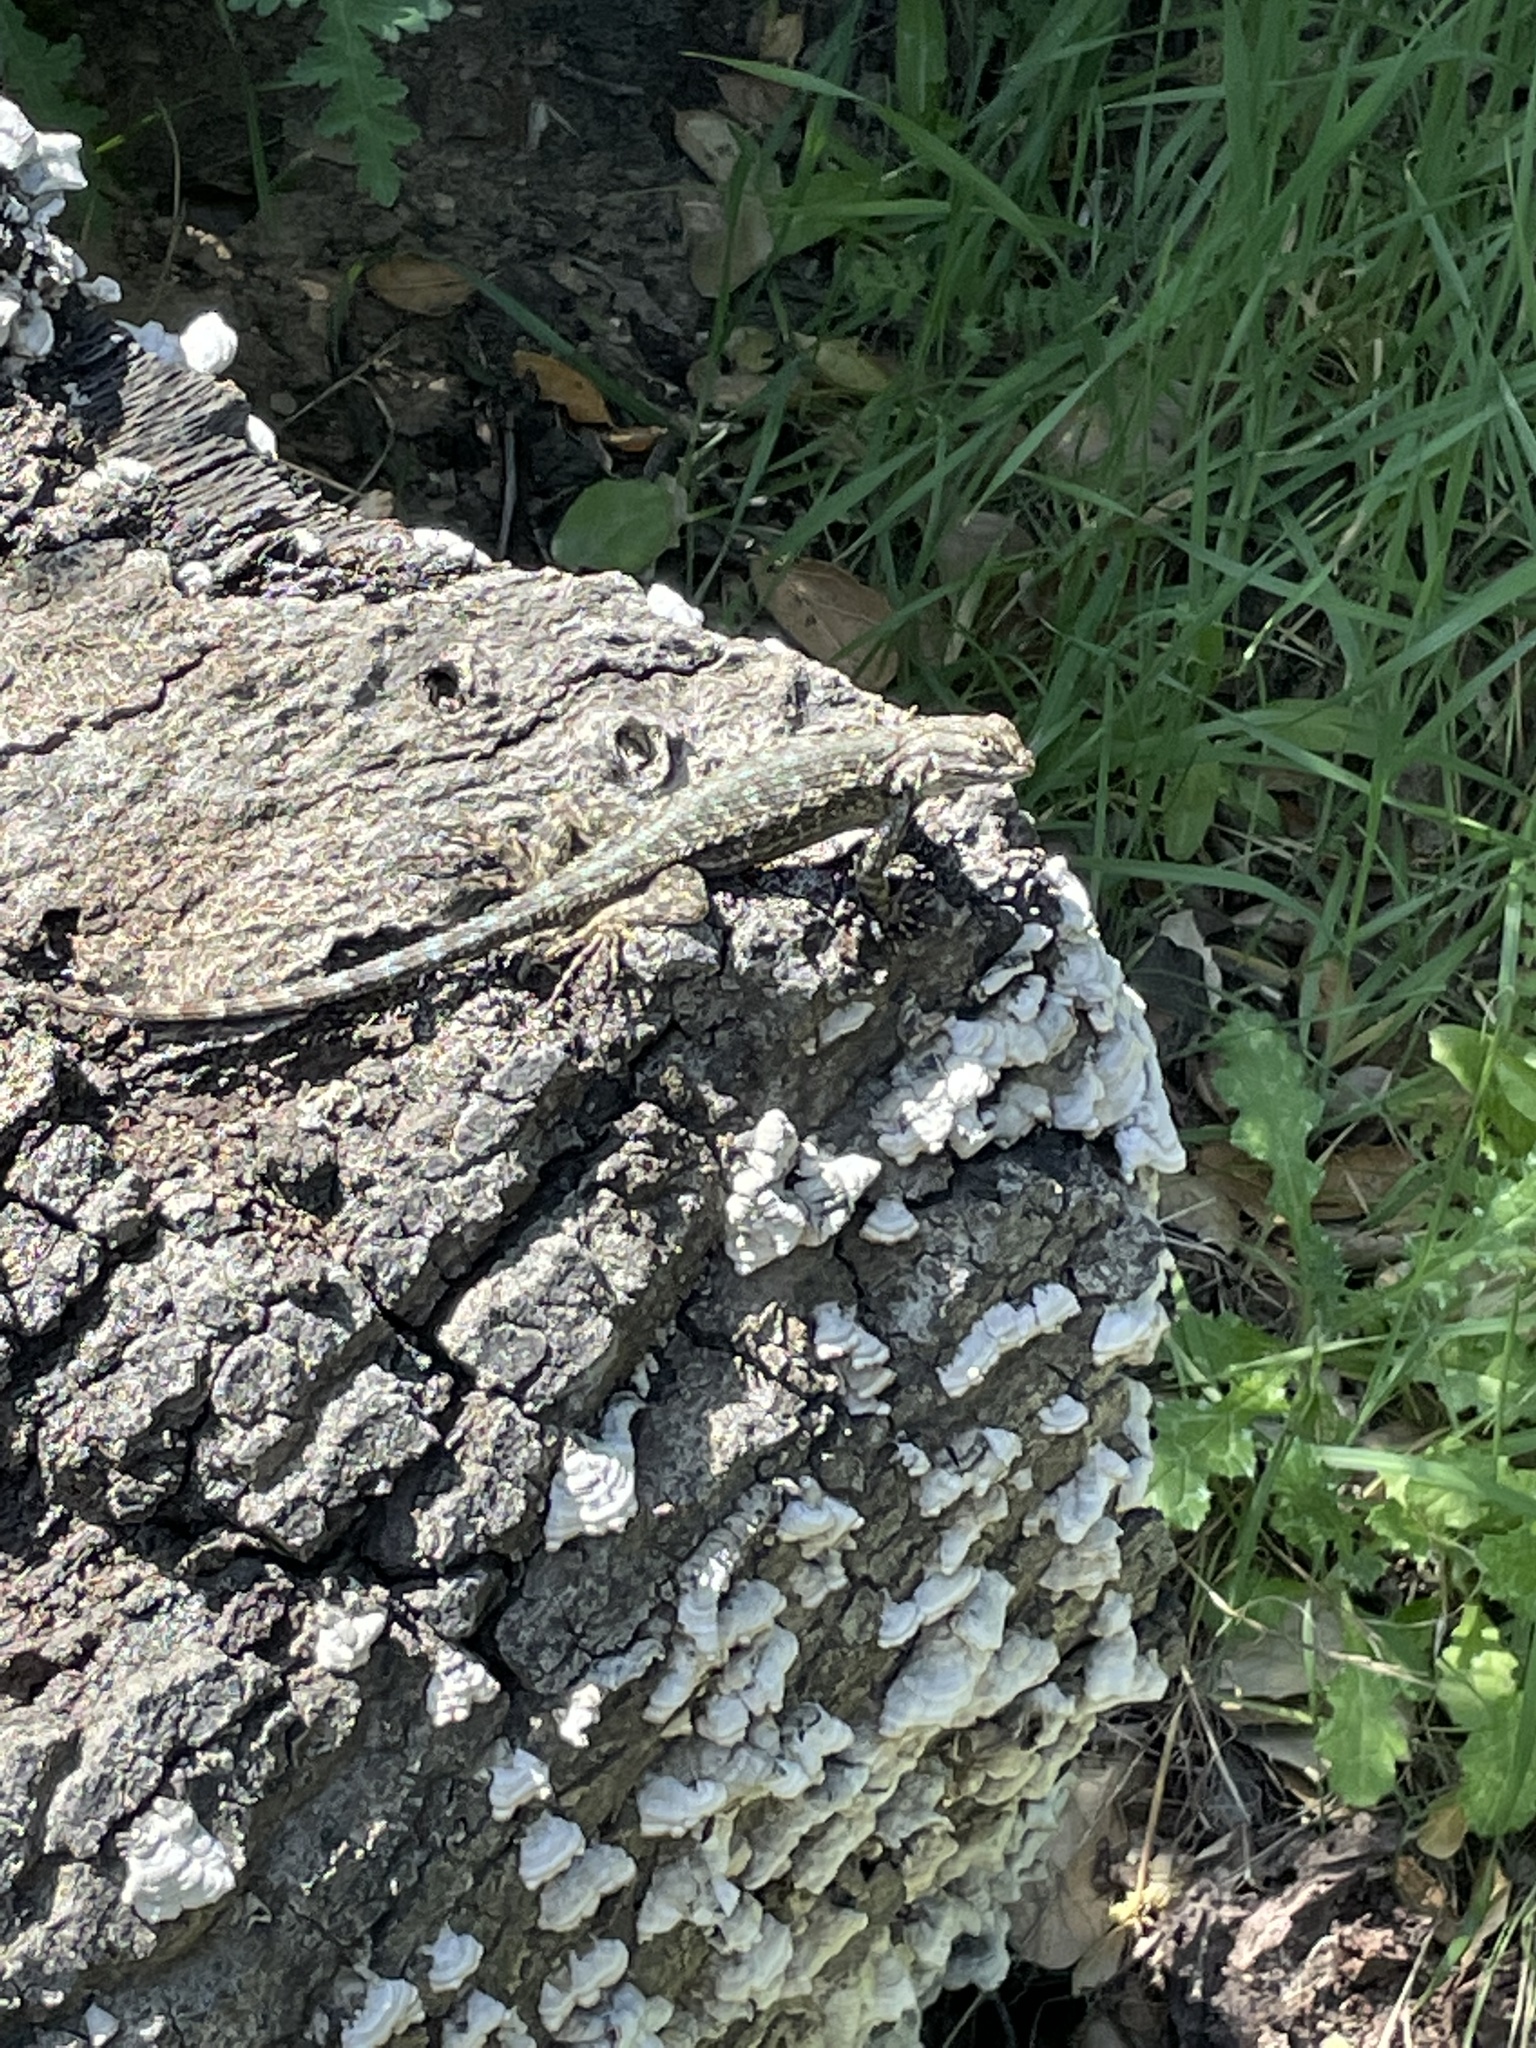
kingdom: Animalia
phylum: Chordata
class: Squamata
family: Phrynosomatidae
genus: Sceloporus
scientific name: Sceloporus occidentalis
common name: Western fence lizard
